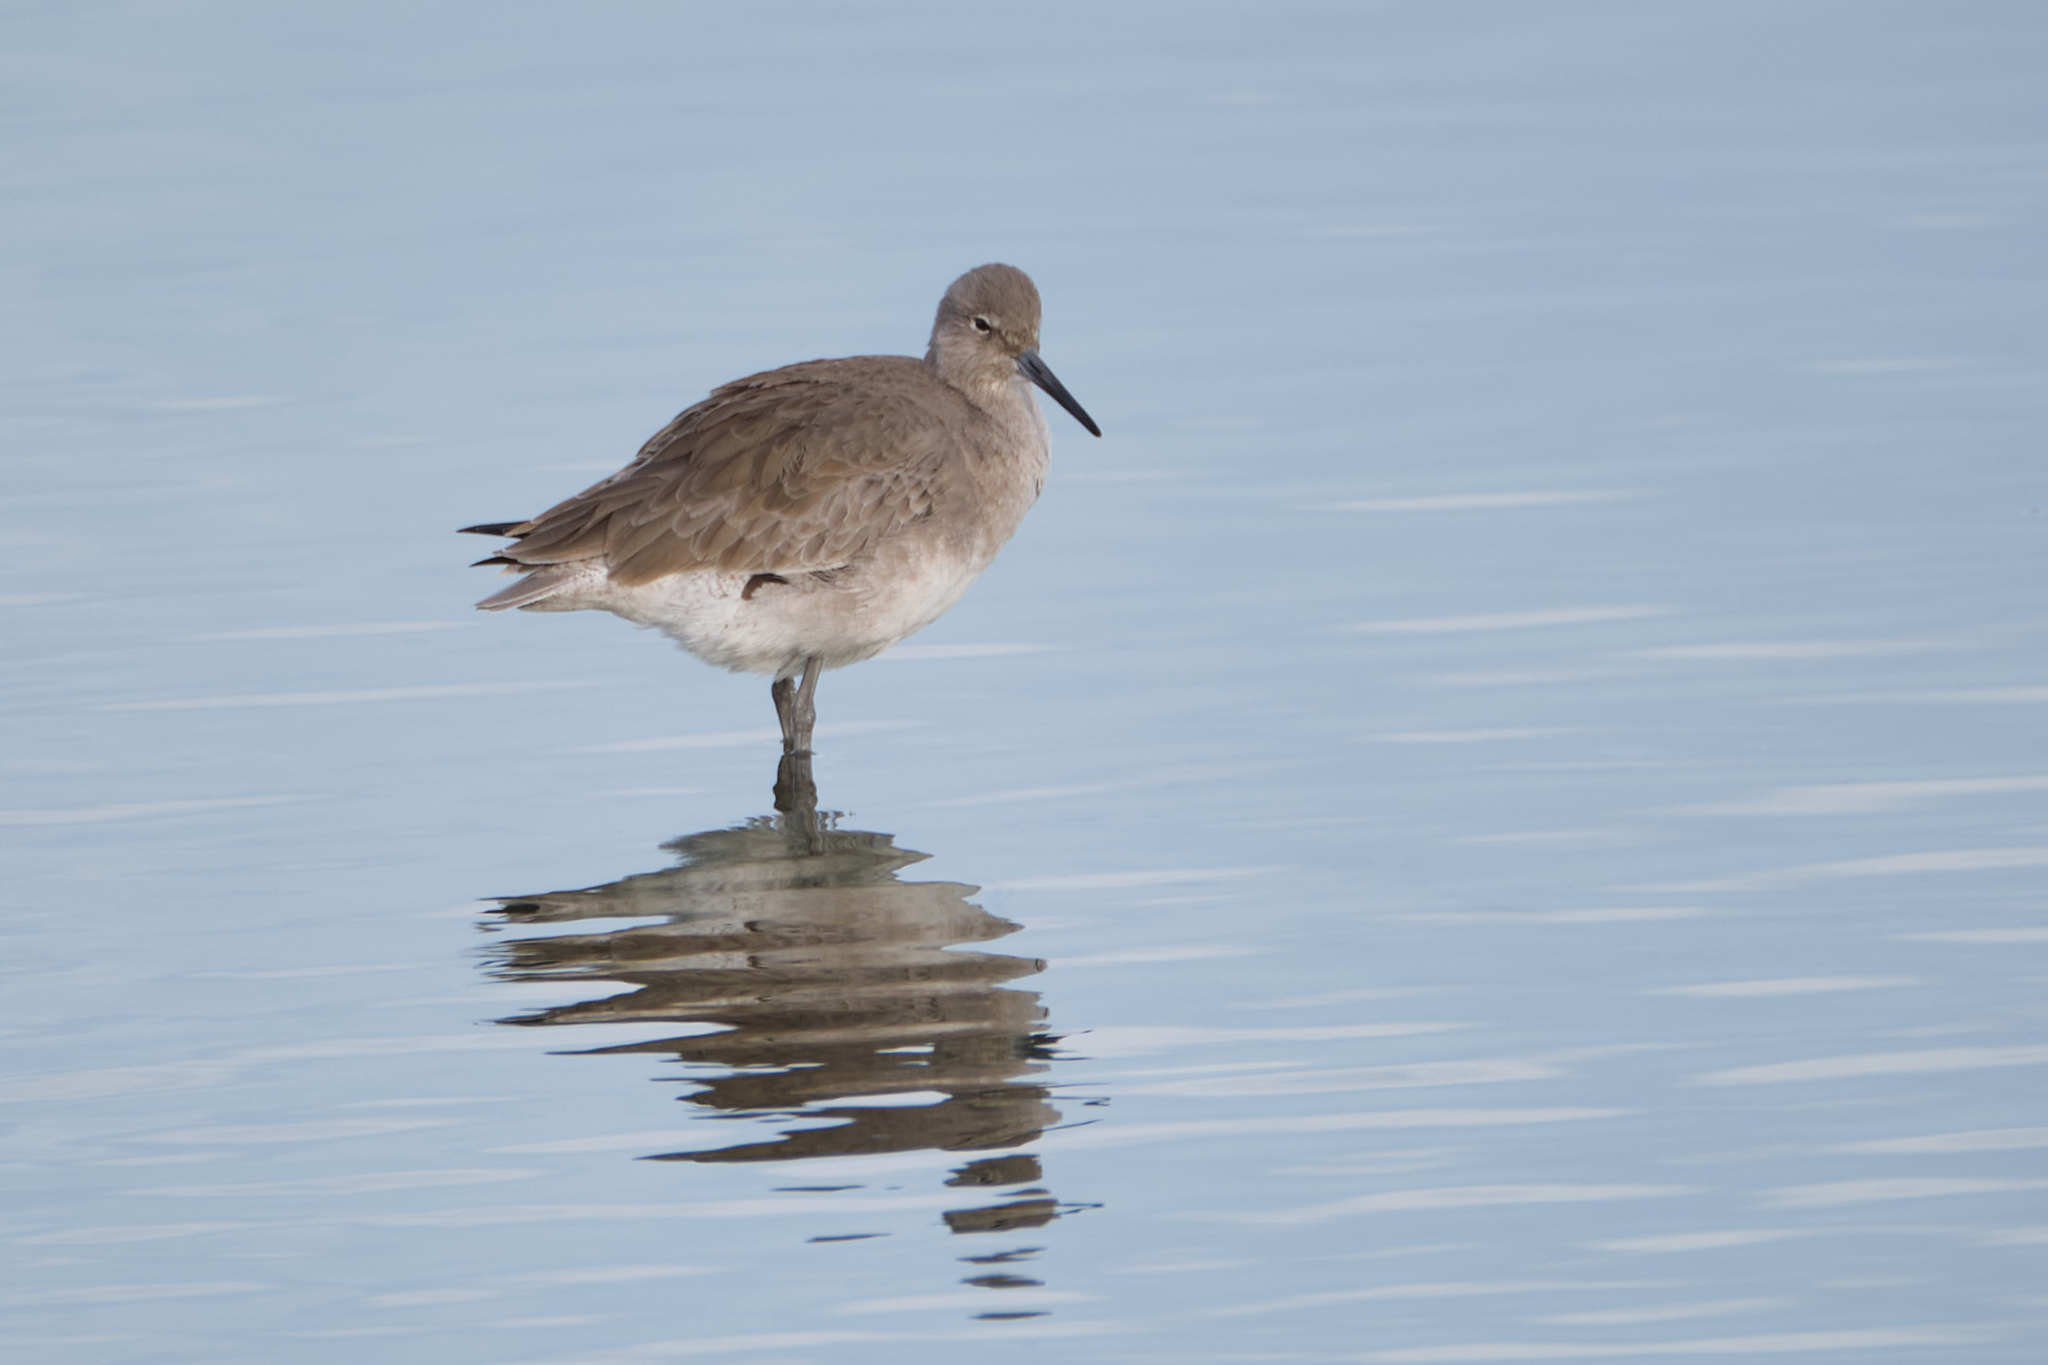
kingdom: Animalia
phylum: Chordata
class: Aves
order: Charadriiformes
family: Scolopacidae
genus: Tringa
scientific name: Tringa semipalmata
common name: Willet
